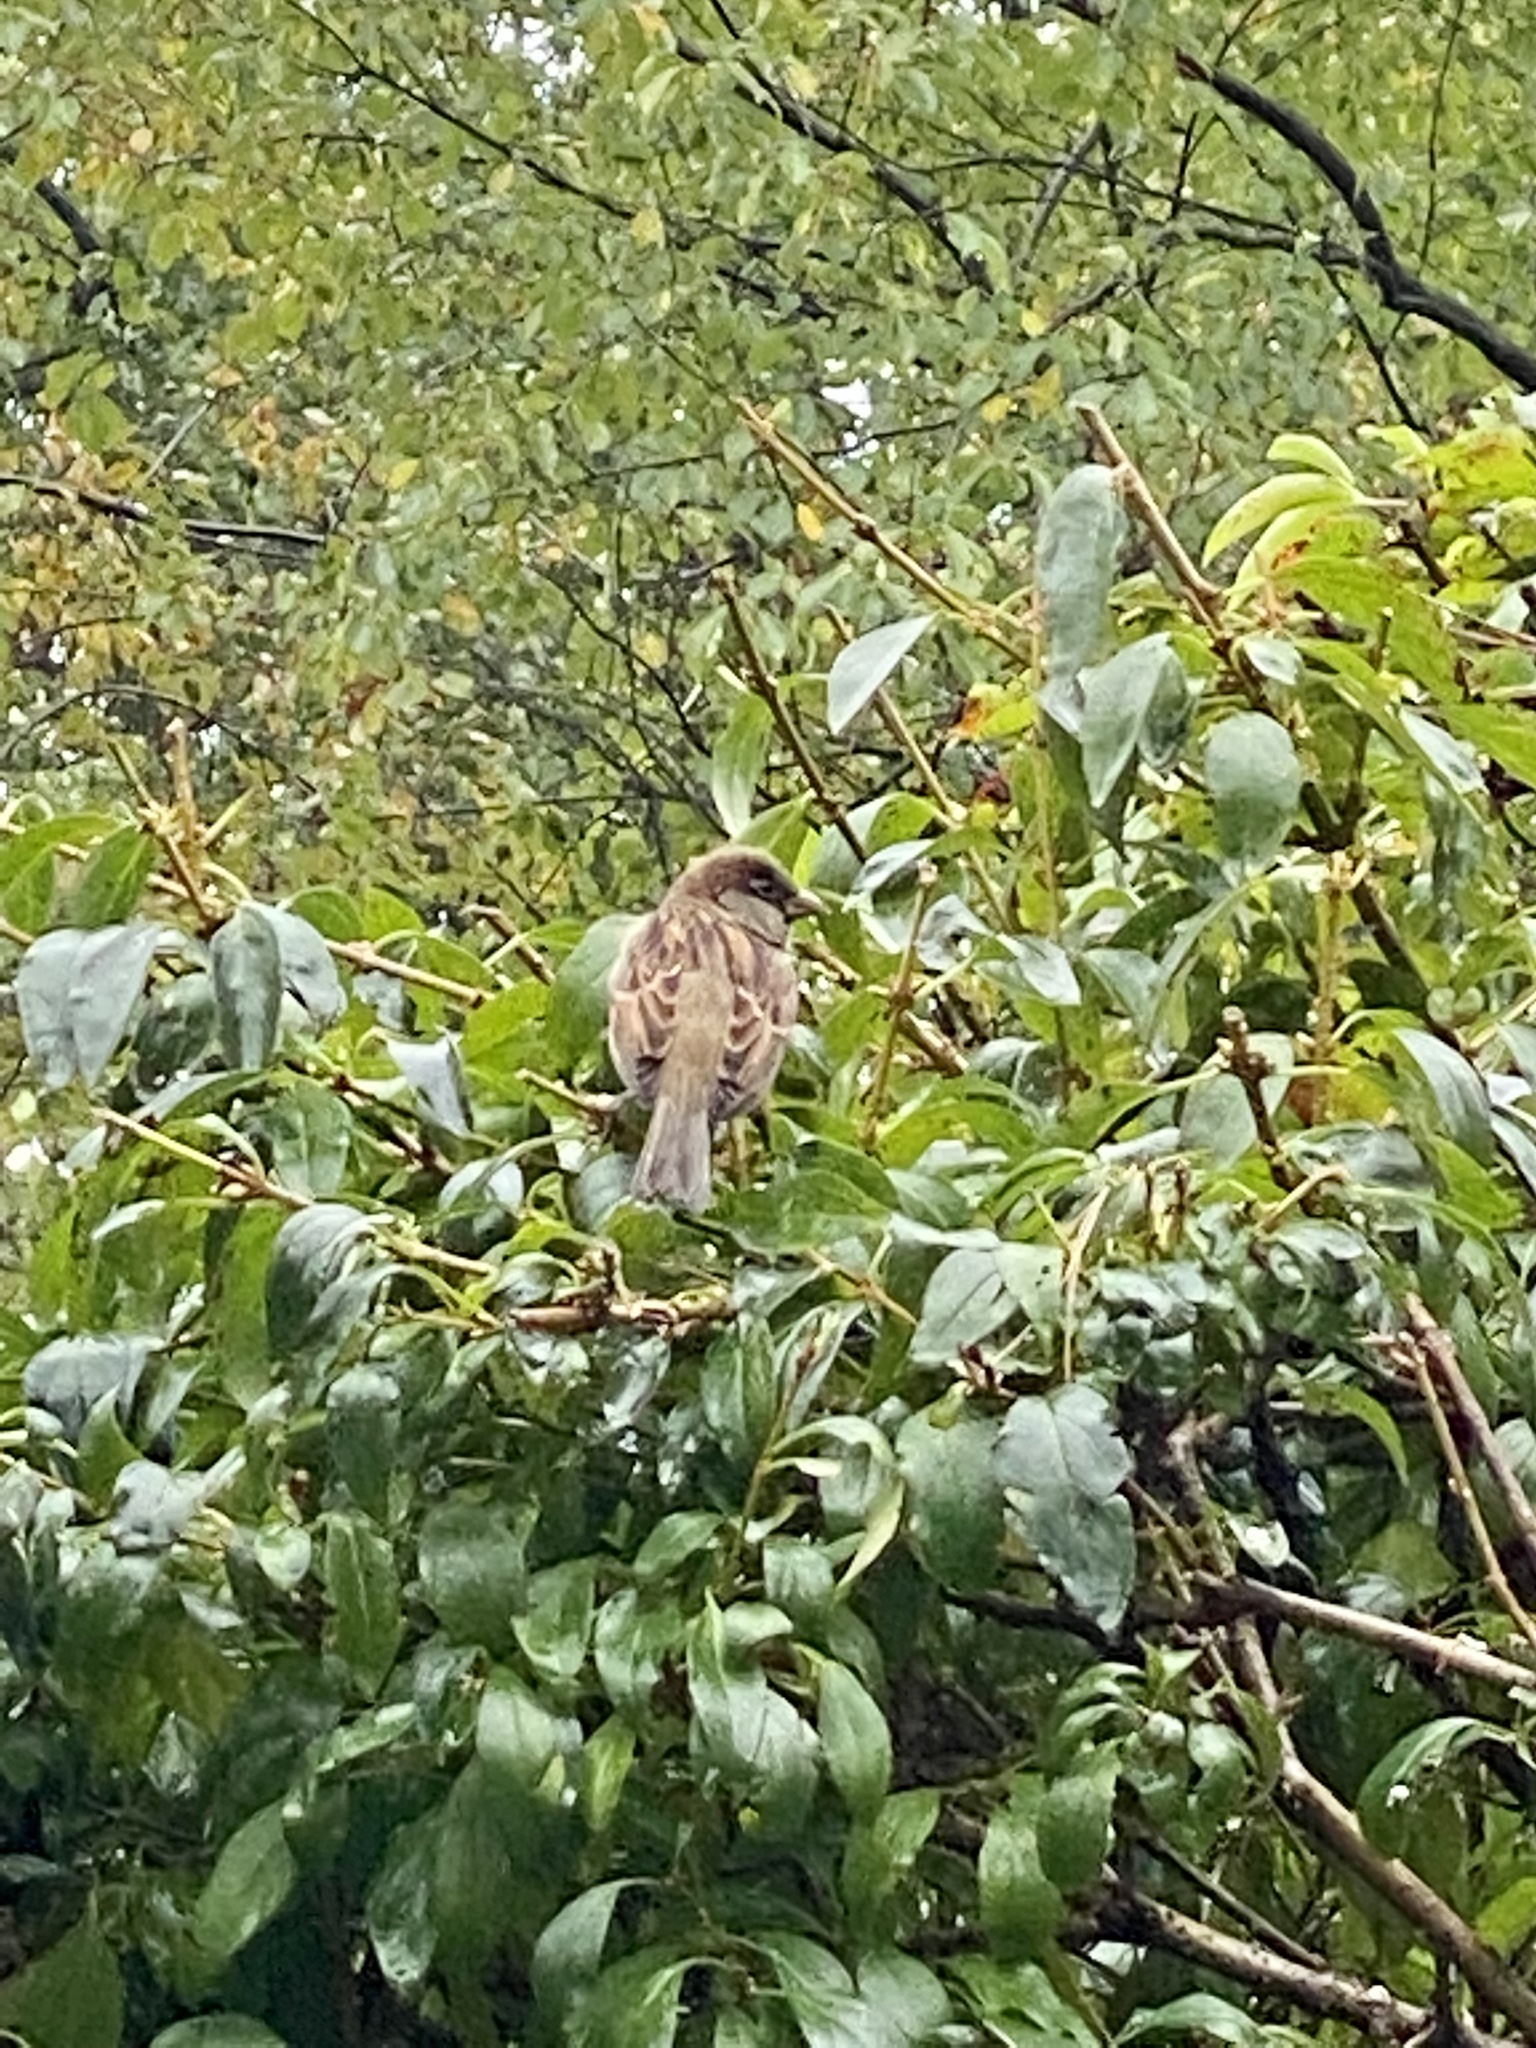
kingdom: Animalia
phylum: Chordata
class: Aves
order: Passeriformes
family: Passeridae
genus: Passer
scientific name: Passer domesticus
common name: House sparrow
